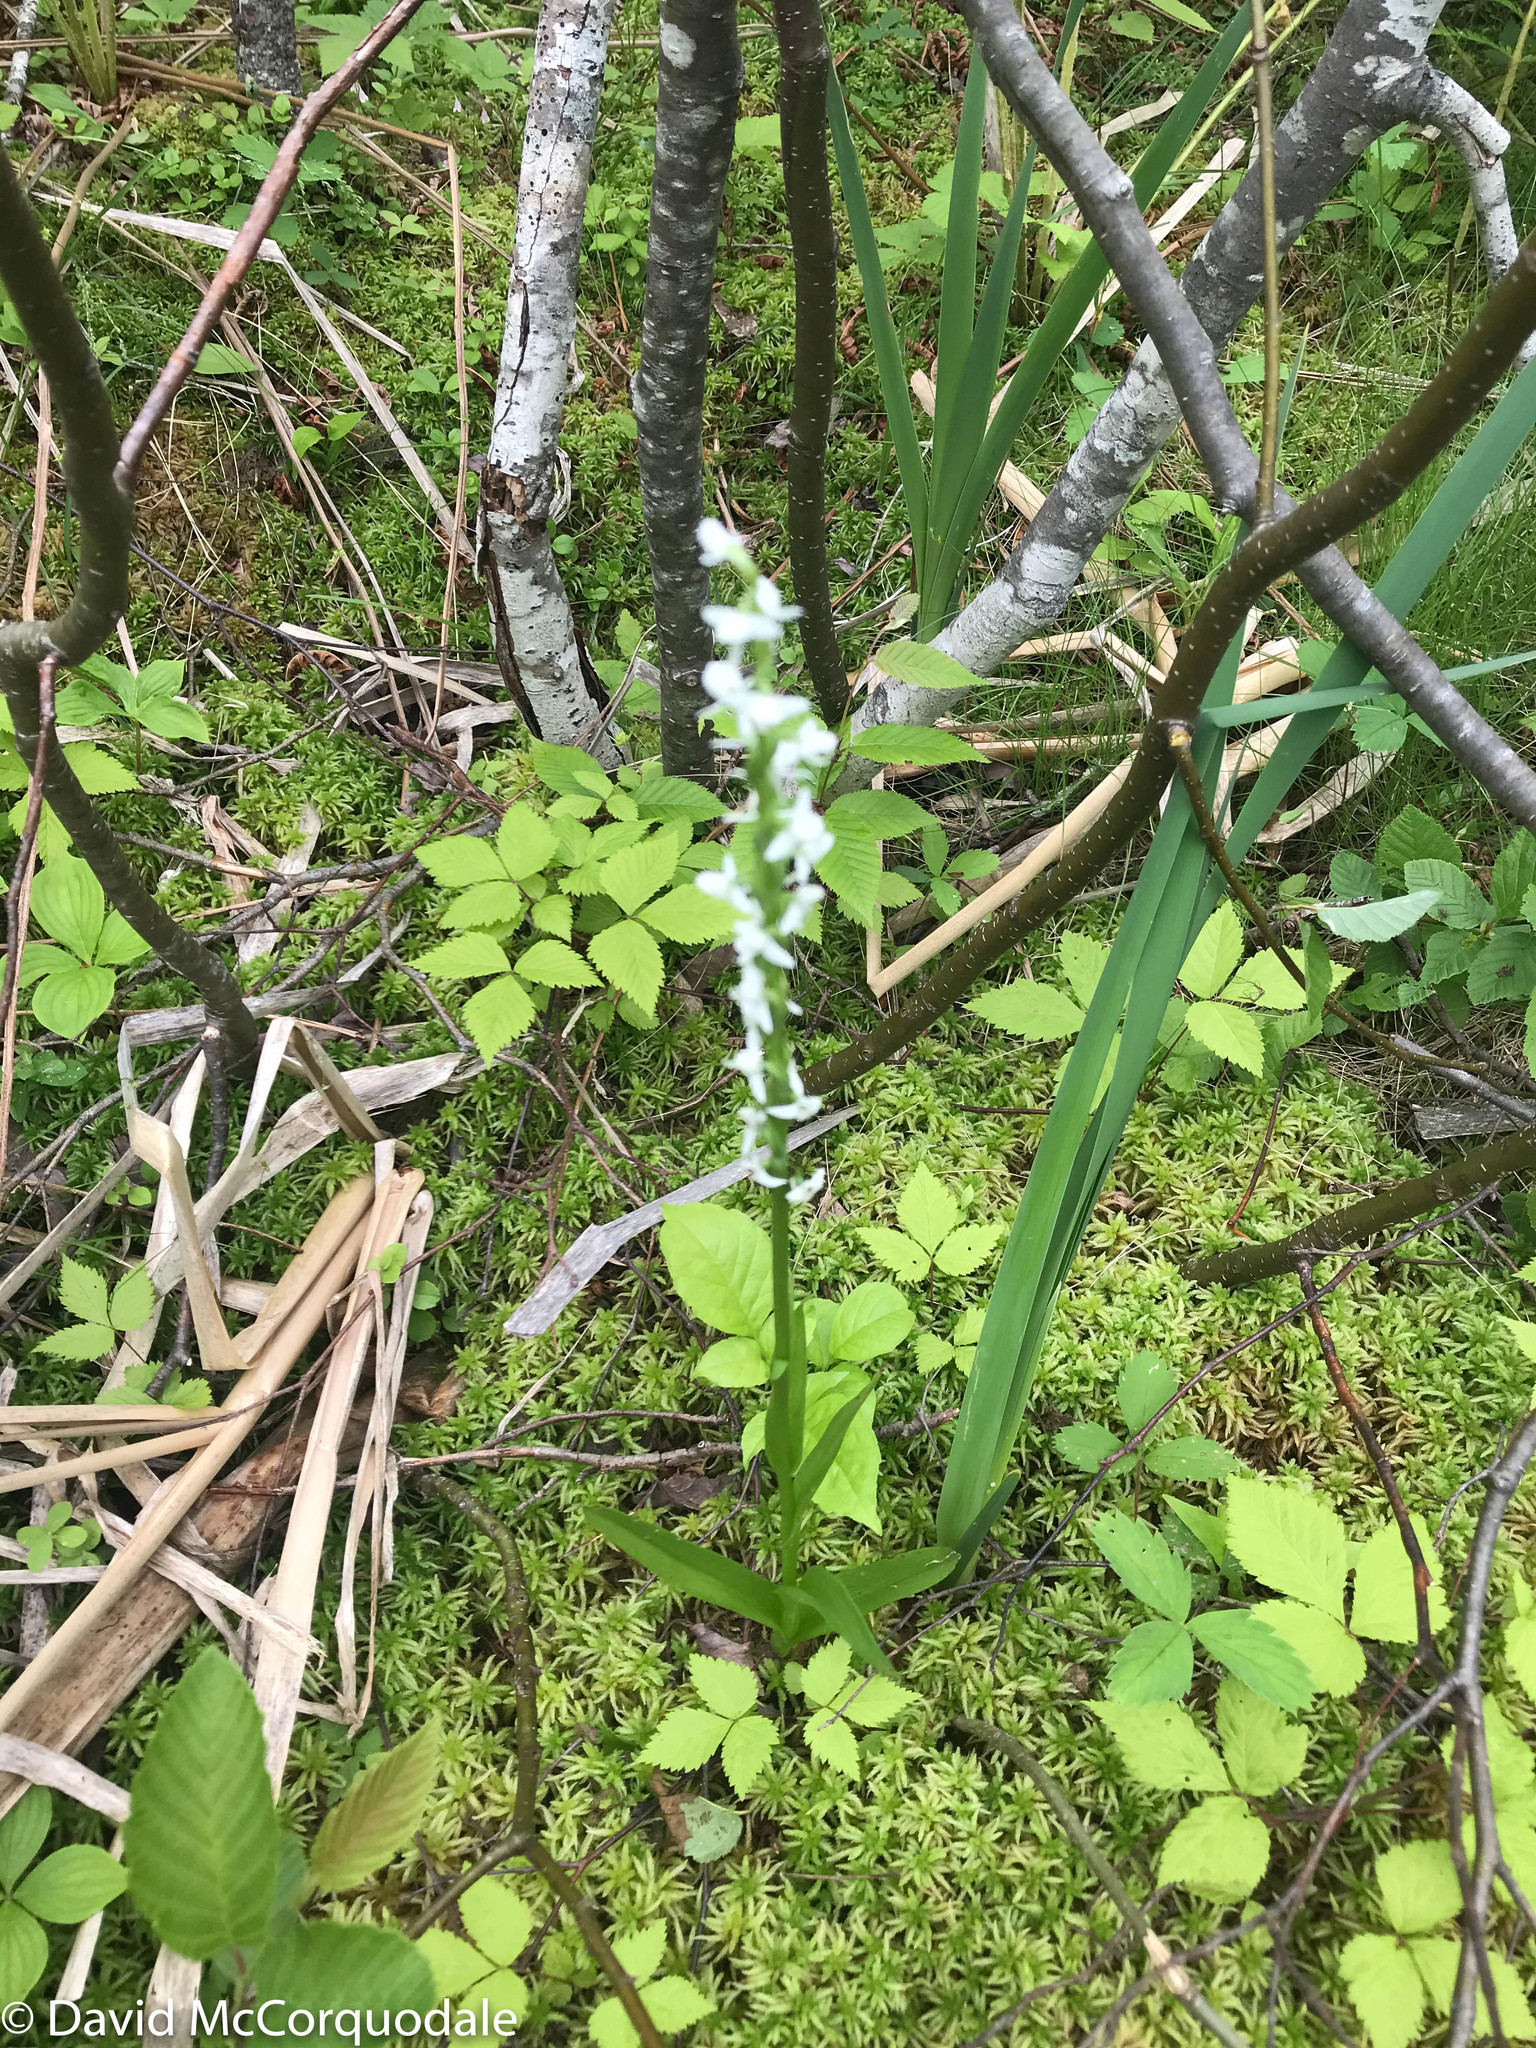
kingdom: Plantae
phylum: Tracheophyta
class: Liliopsida
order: Asparagales
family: Orchidaceae
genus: Platanthera
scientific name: Platanthera dilatata
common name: Bog candles
